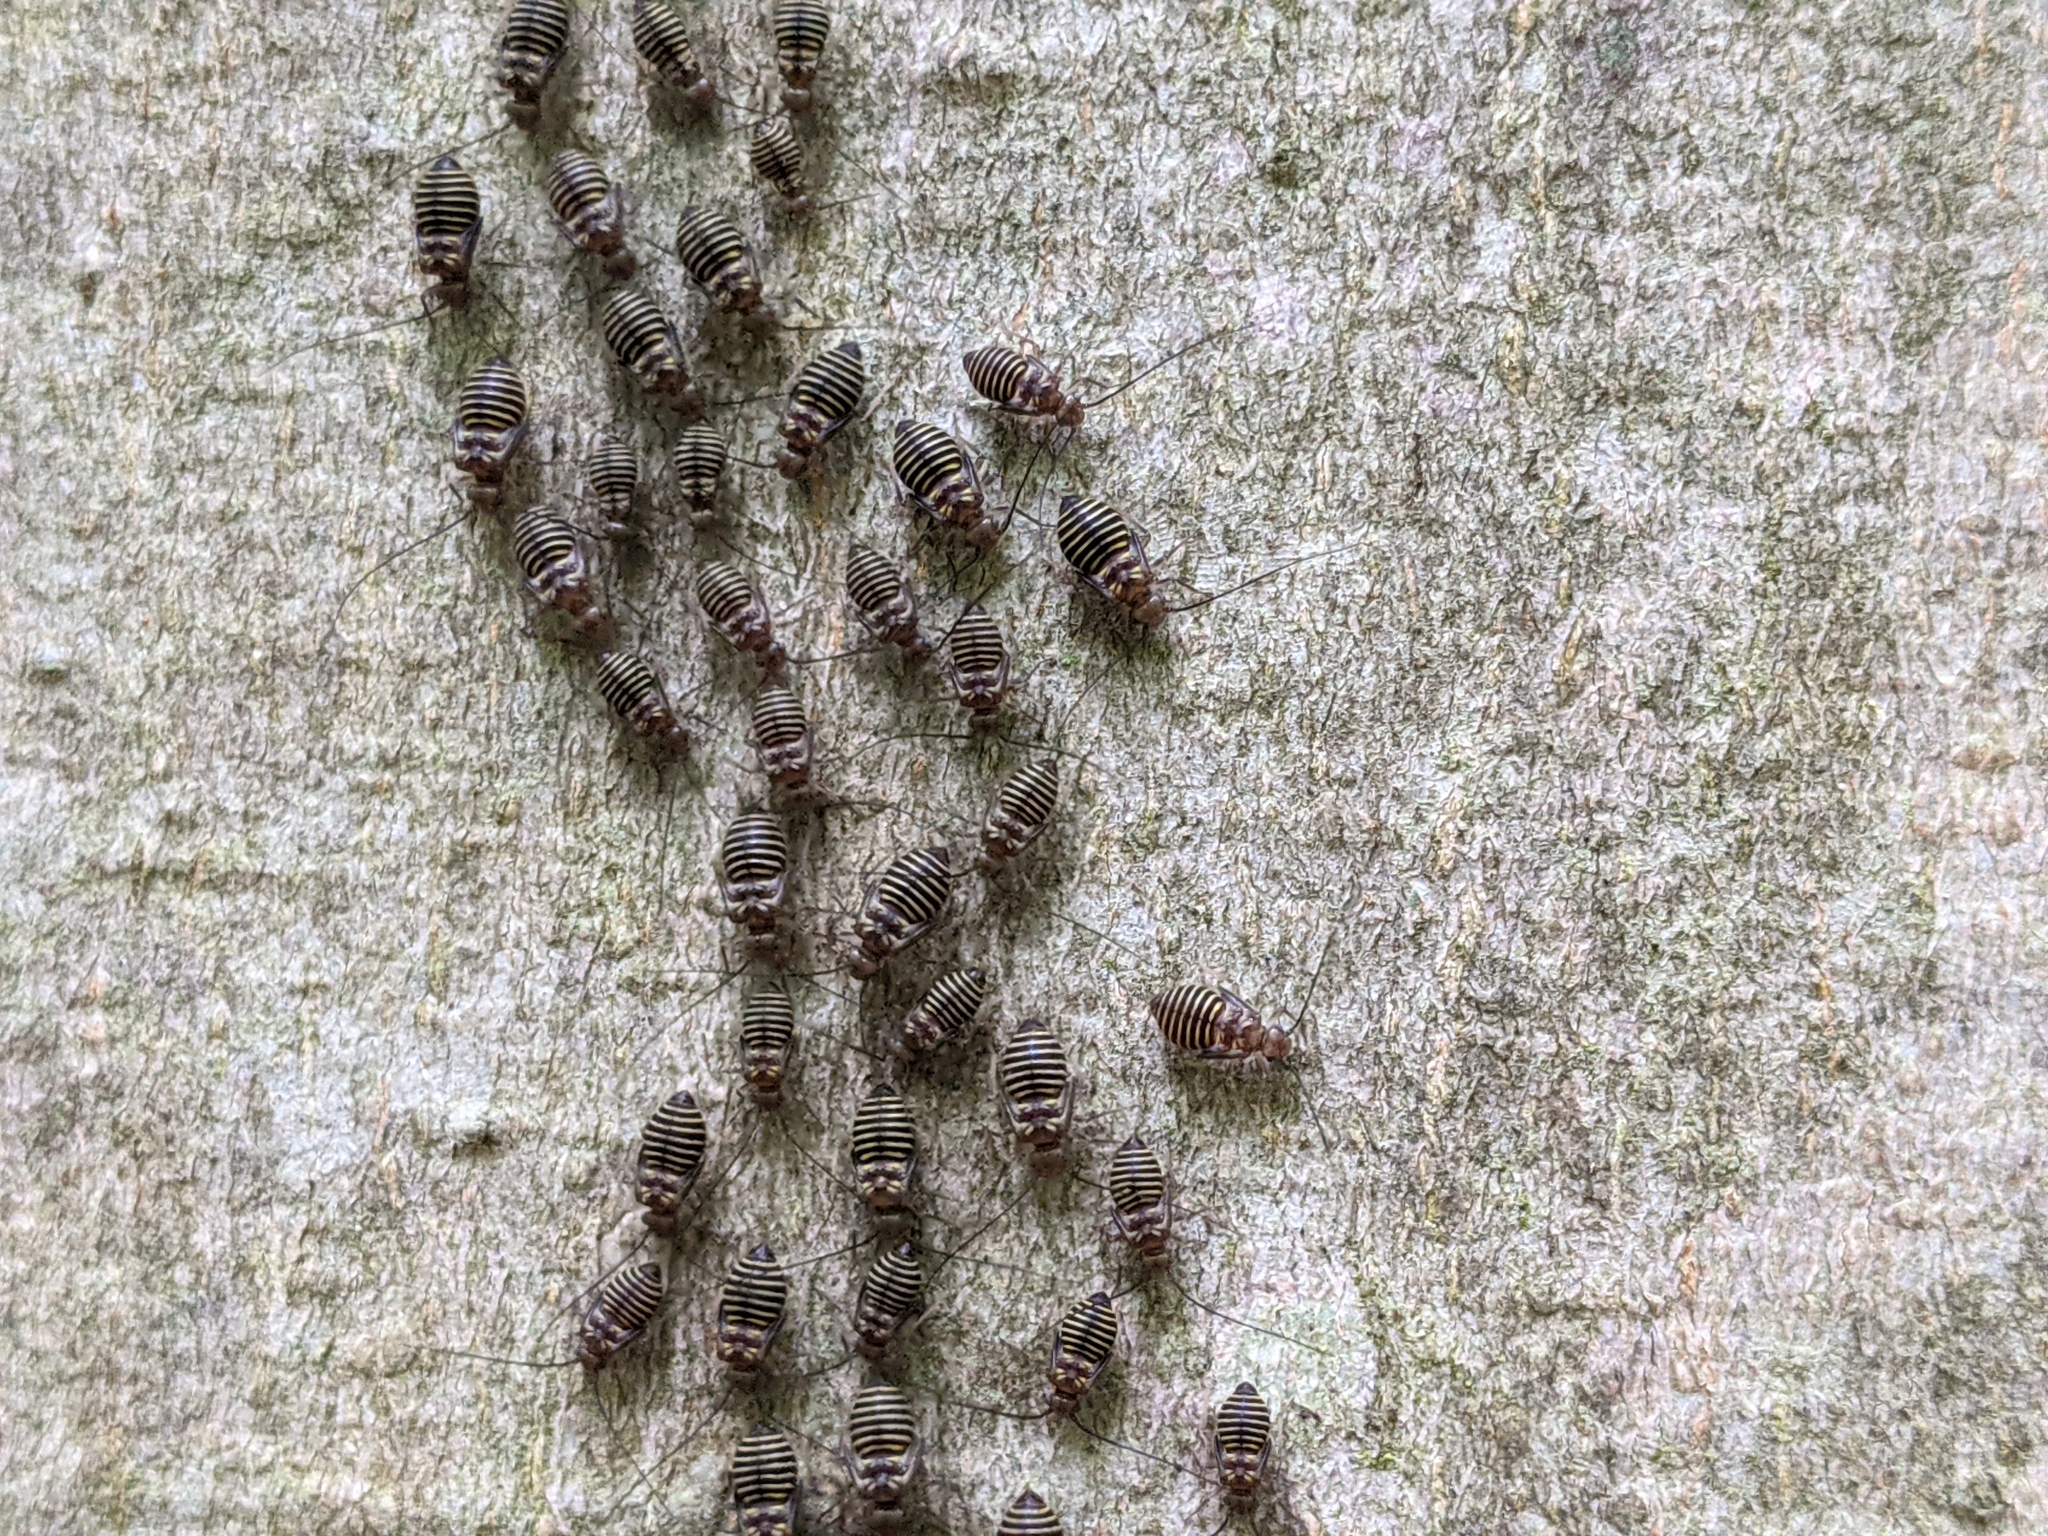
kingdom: Animalia
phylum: Arthropoda
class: Insecta
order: Psocodea
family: Psocidae
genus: Cerastipsocus
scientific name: Cerastipsocus venosus
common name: Tree cattle
